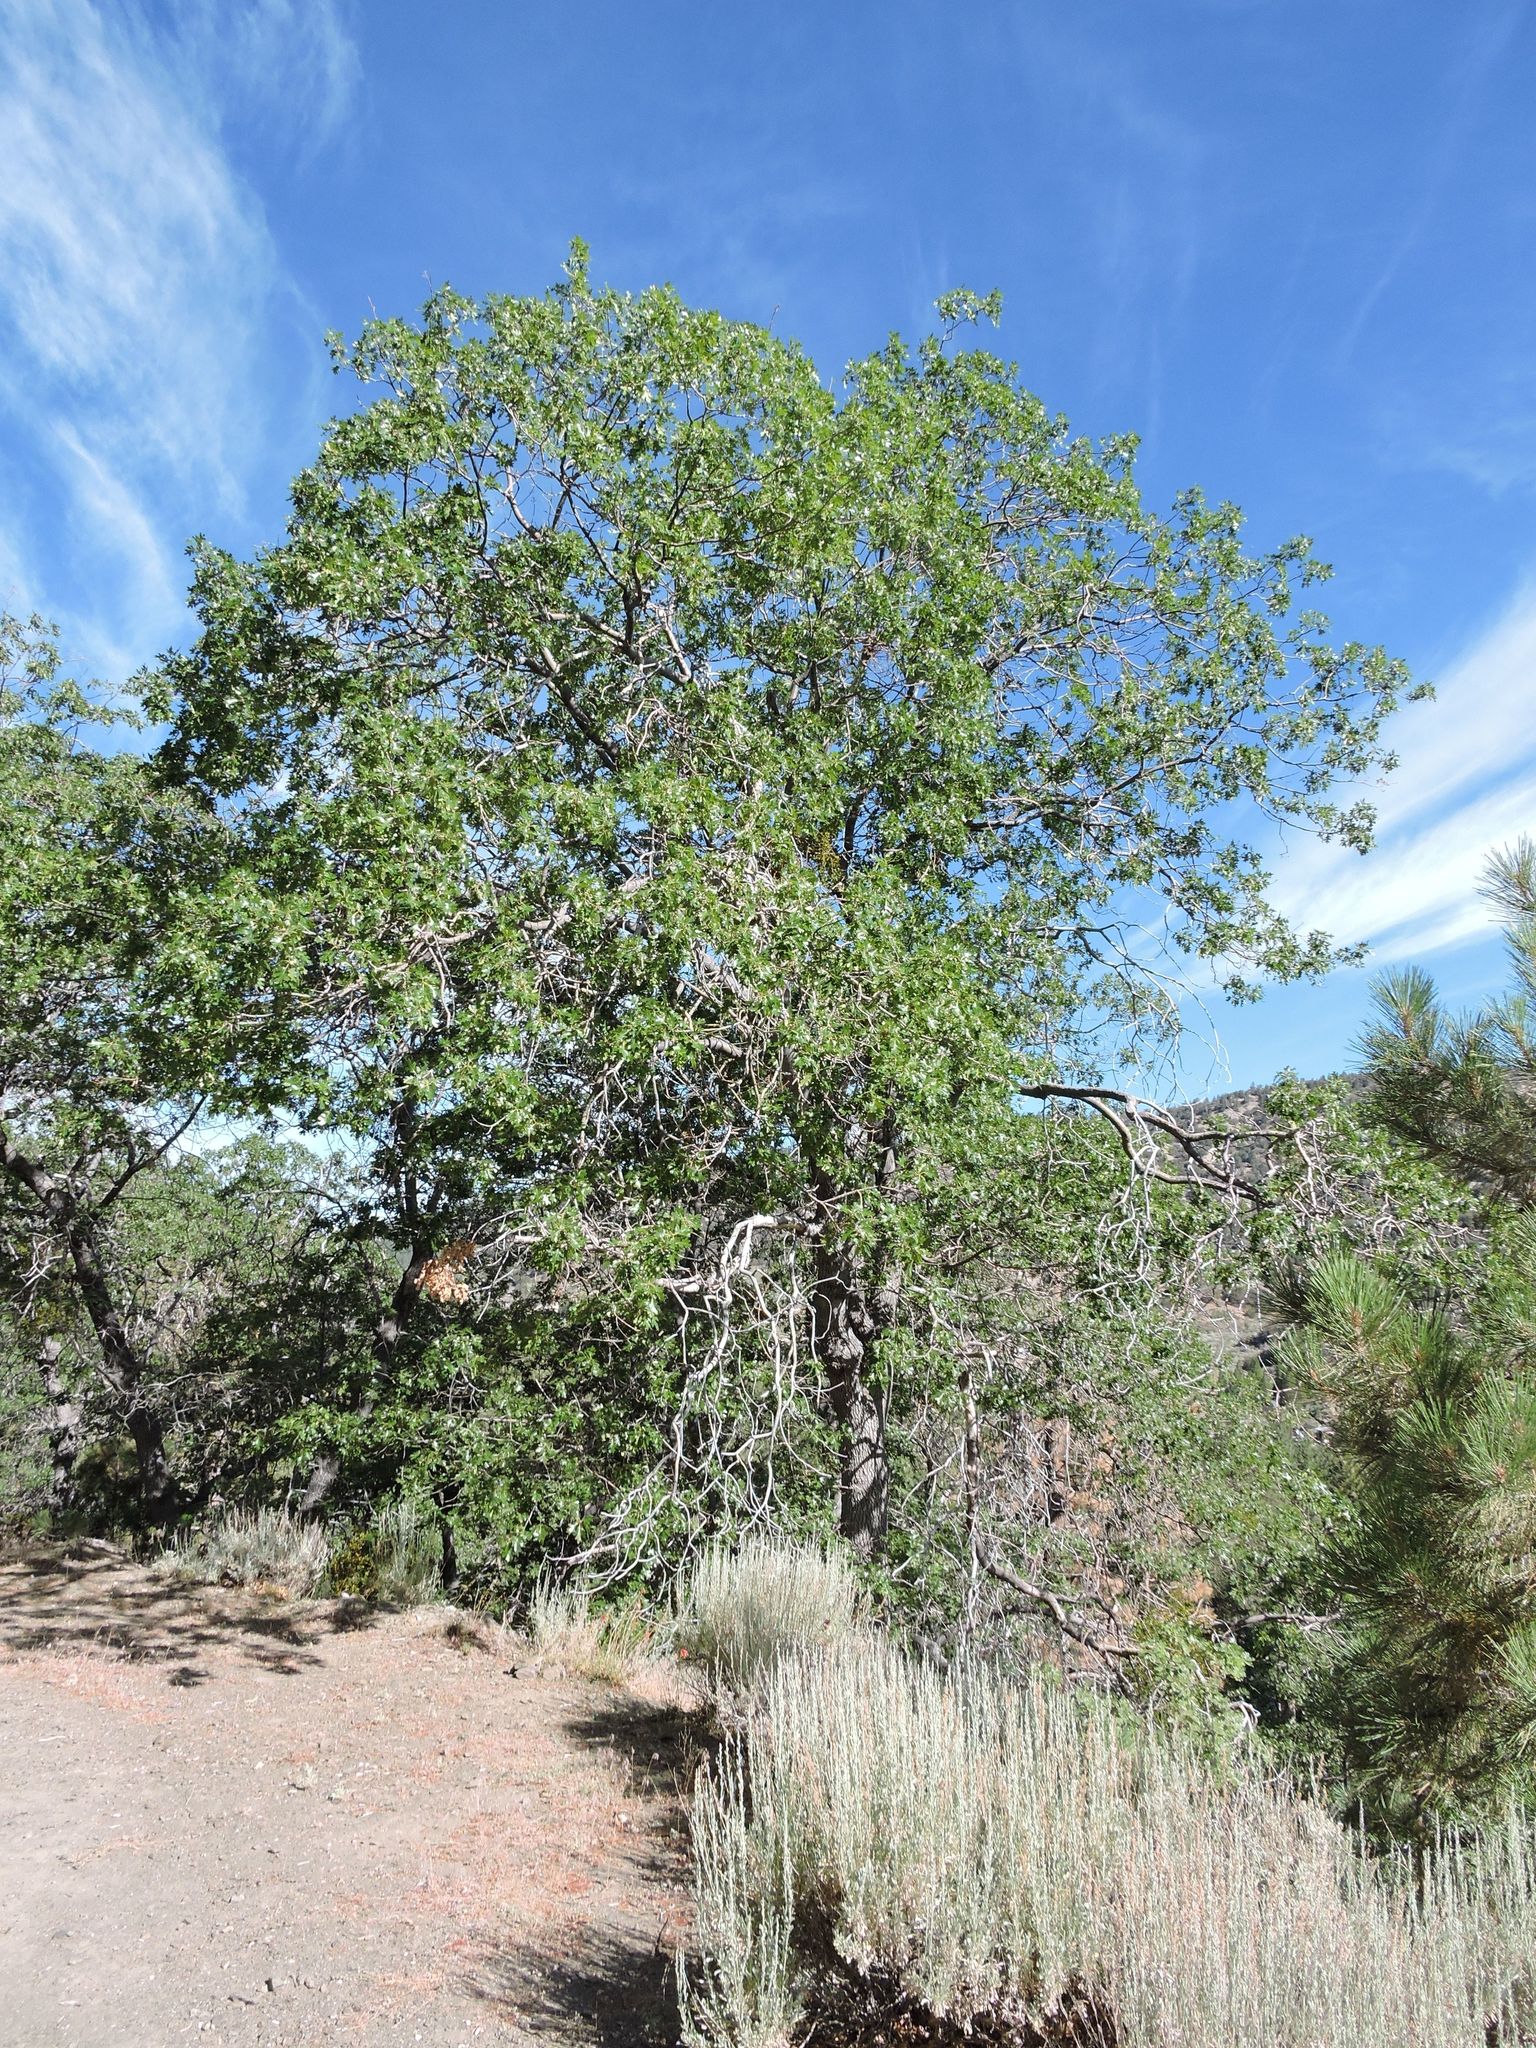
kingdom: Plantae
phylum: Tracheophyta
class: Magnoliopsida
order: Fagales
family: Fagaceae
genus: Quercus
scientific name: Quercus kelloggii
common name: California black oak
